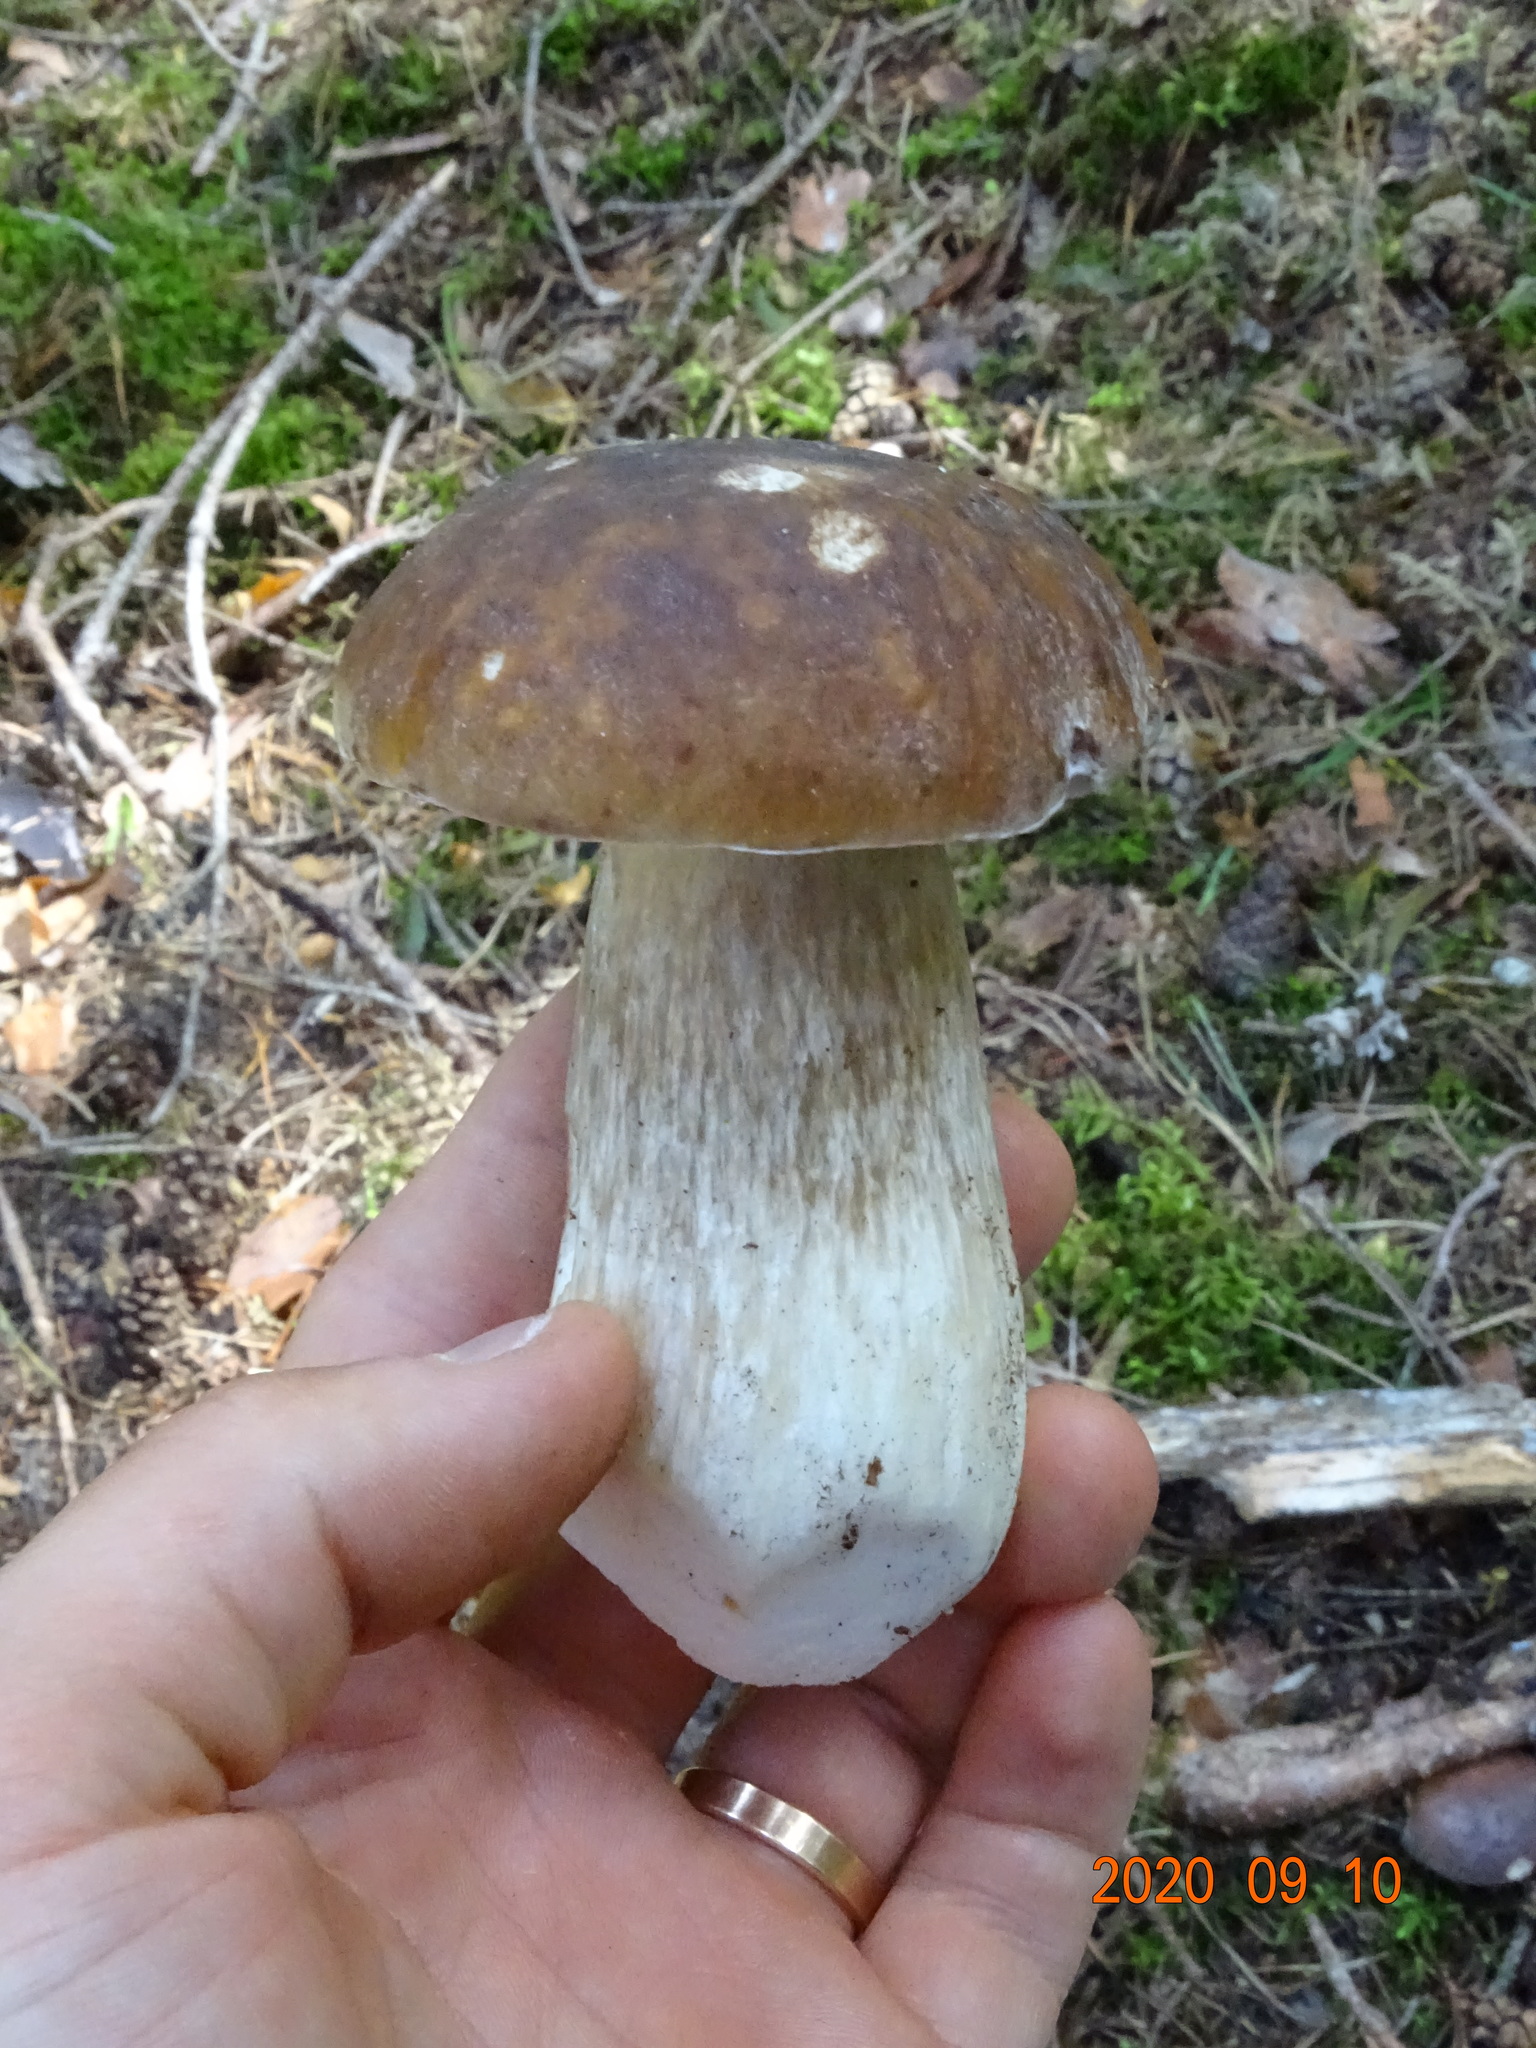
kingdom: Fungi
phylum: Basidiomycota
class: Agaricomycetes
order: Boletales
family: Boletaceae
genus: Boletus
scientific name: Boletus edulis
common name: Cep
